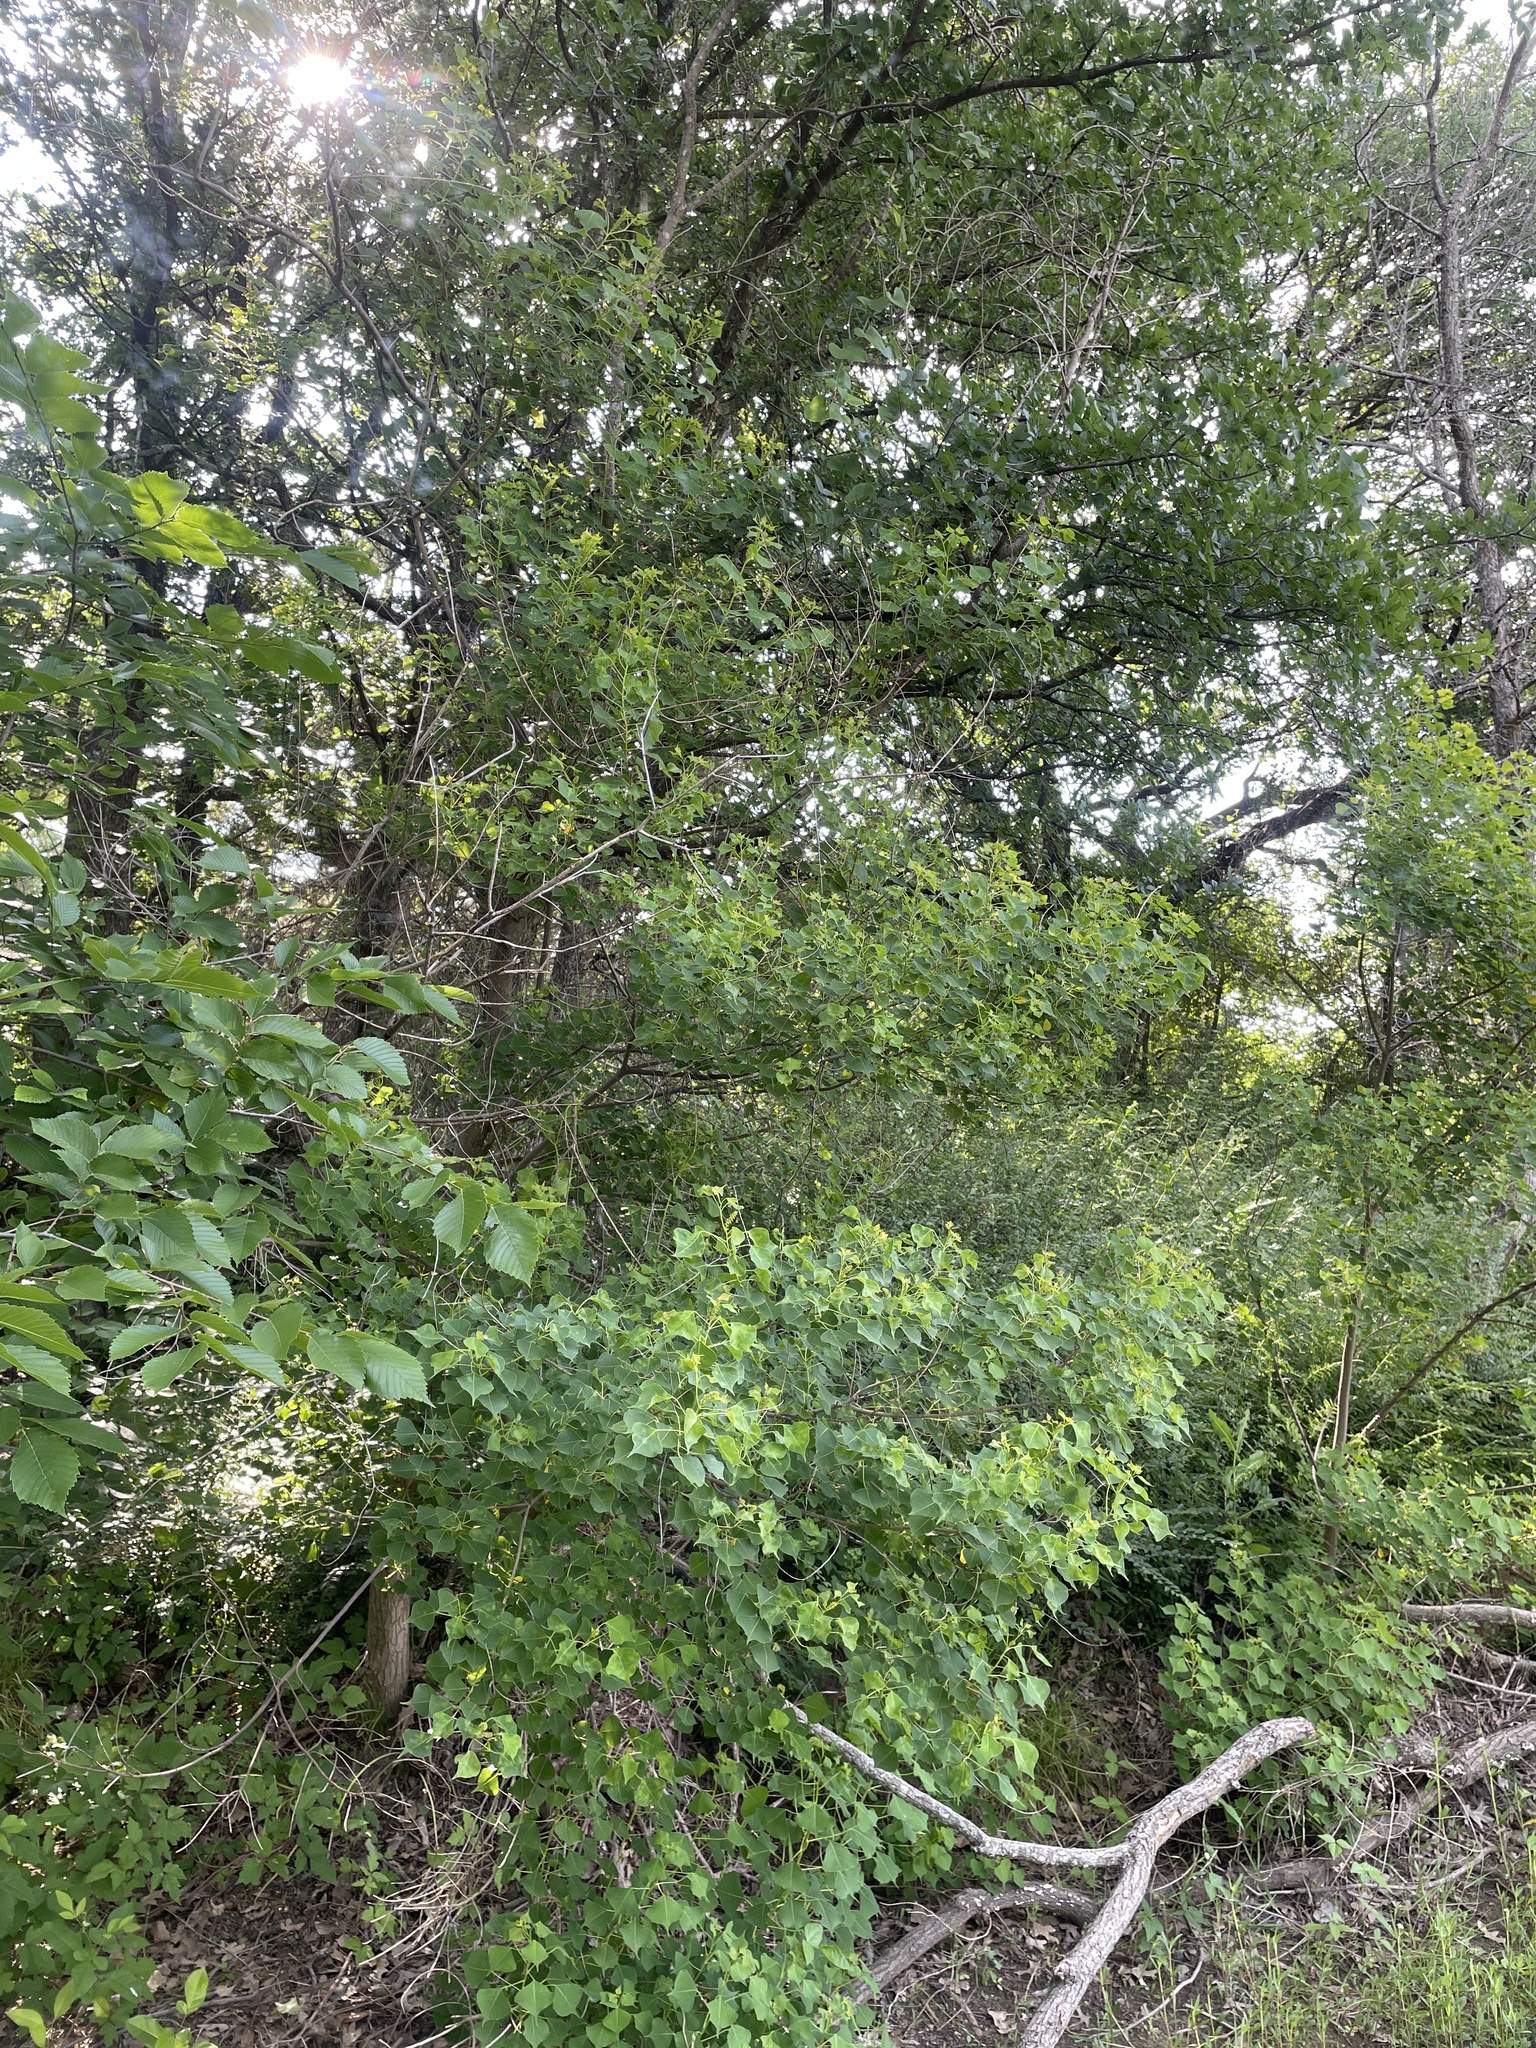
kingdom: Plantae
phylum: Tracheophyta
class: Magnoliopsida
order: Malpighiales
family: Euphorbiaceae
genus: Triadica
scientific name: Triadica sebifera
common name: Chinese tallow
